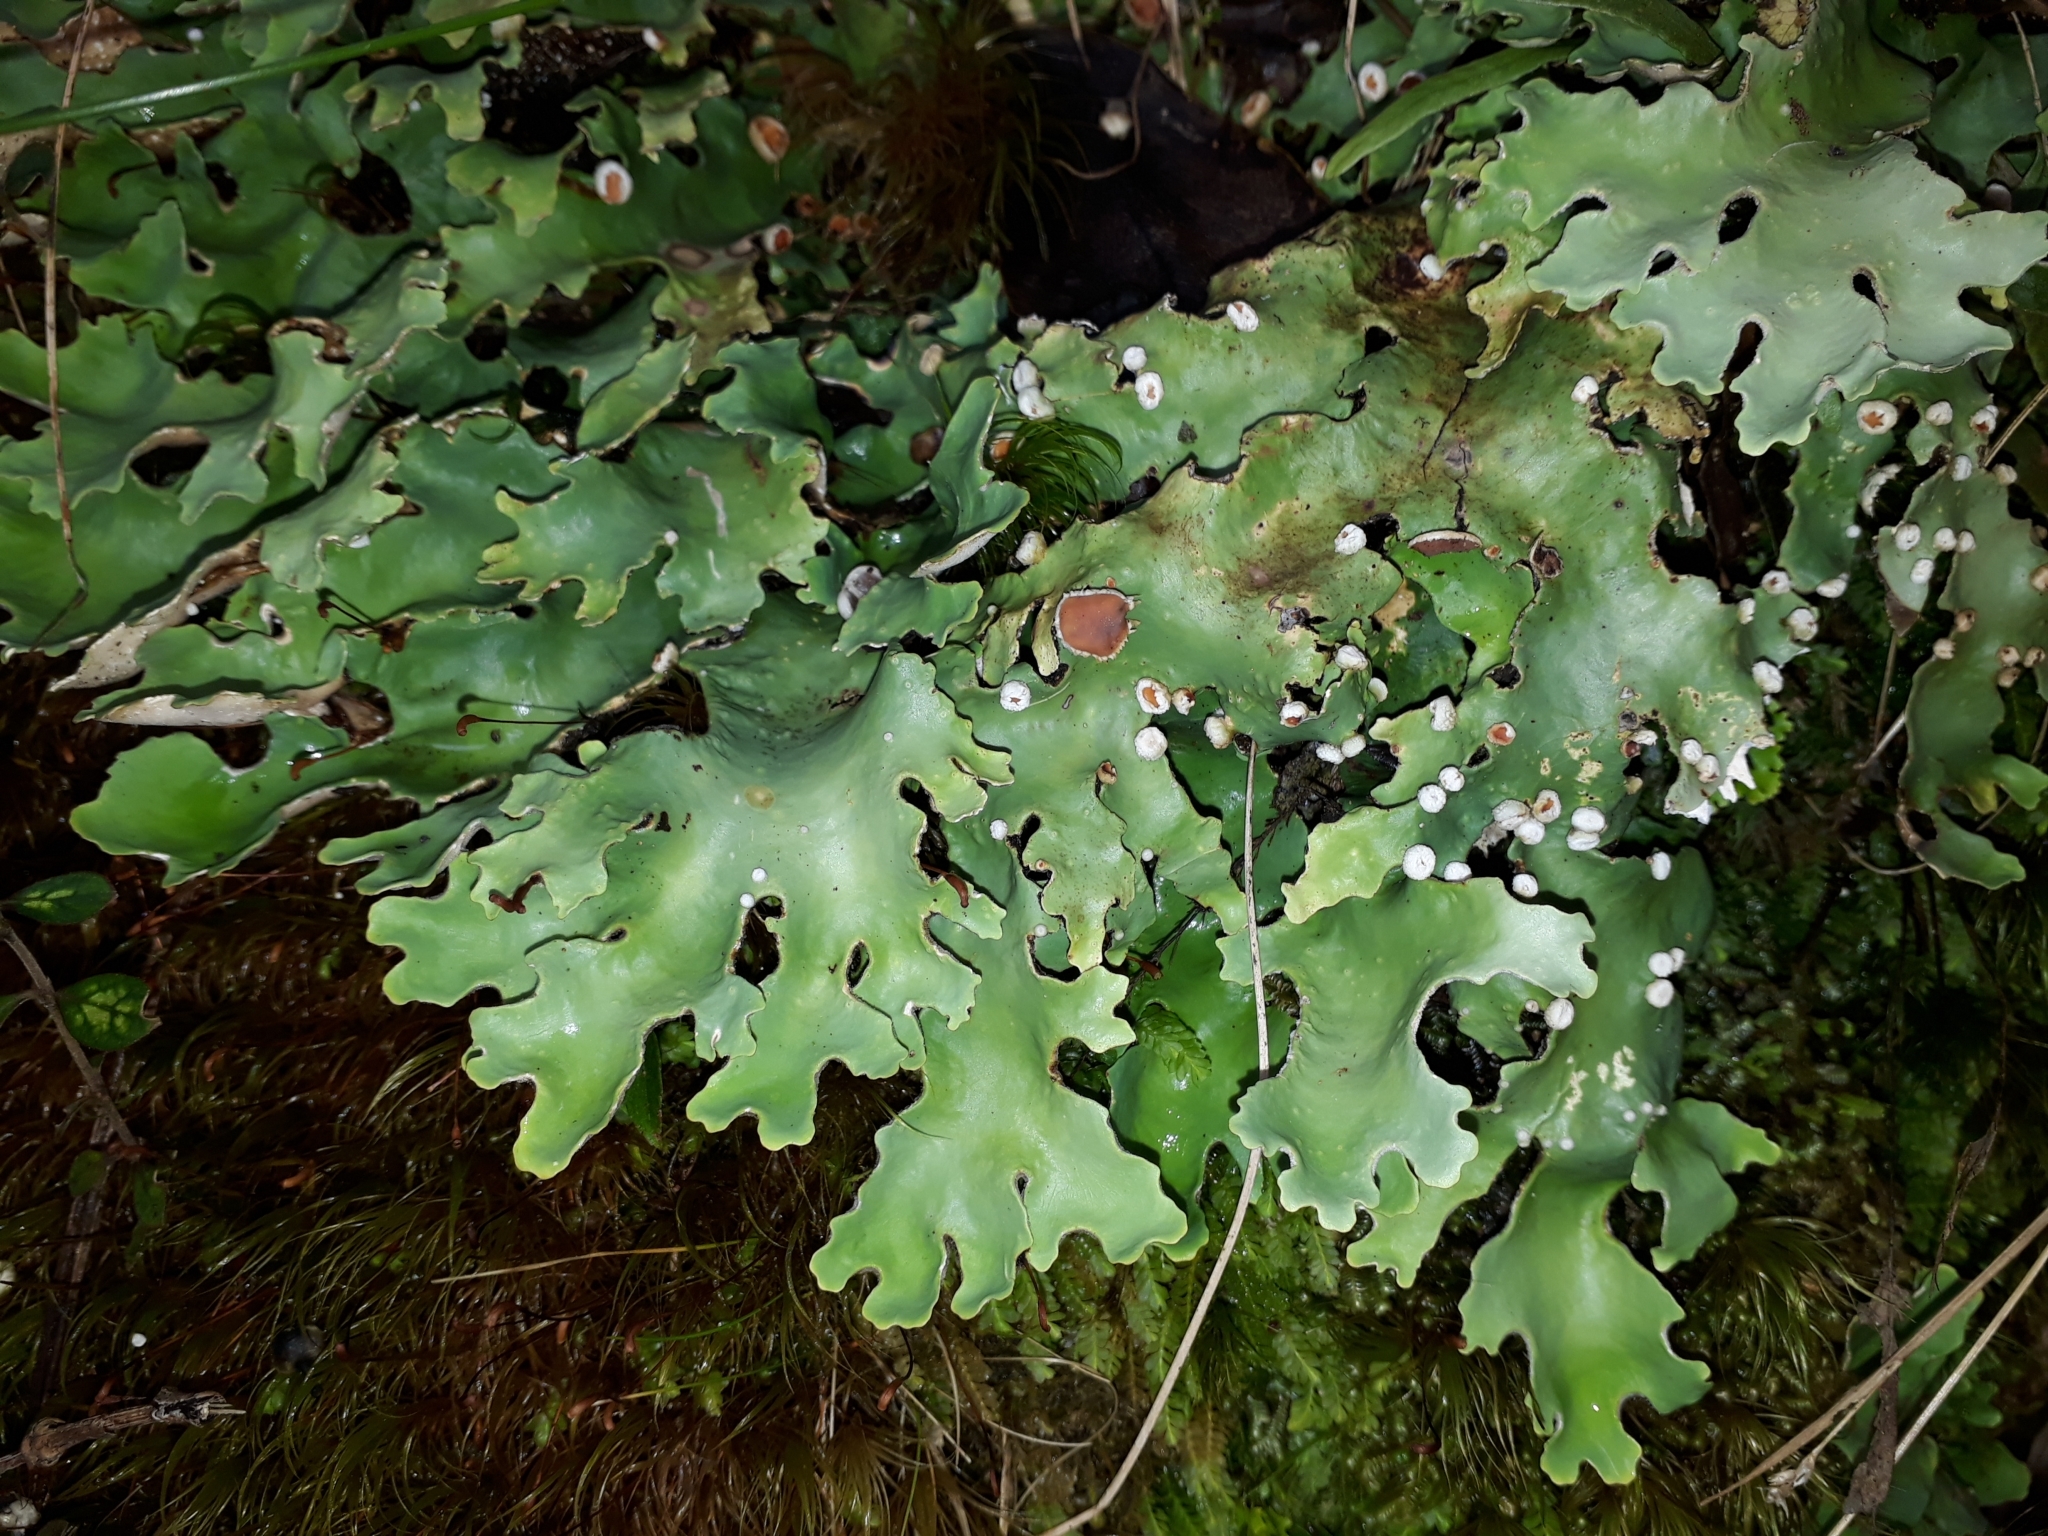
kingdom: Fungi
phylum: Ascomycota
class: Lecanoromycetes
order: Peltigerales
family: Lobariaceae
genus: Pseudocyphellaria
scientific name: Pseudocyphellaria homeophylla
